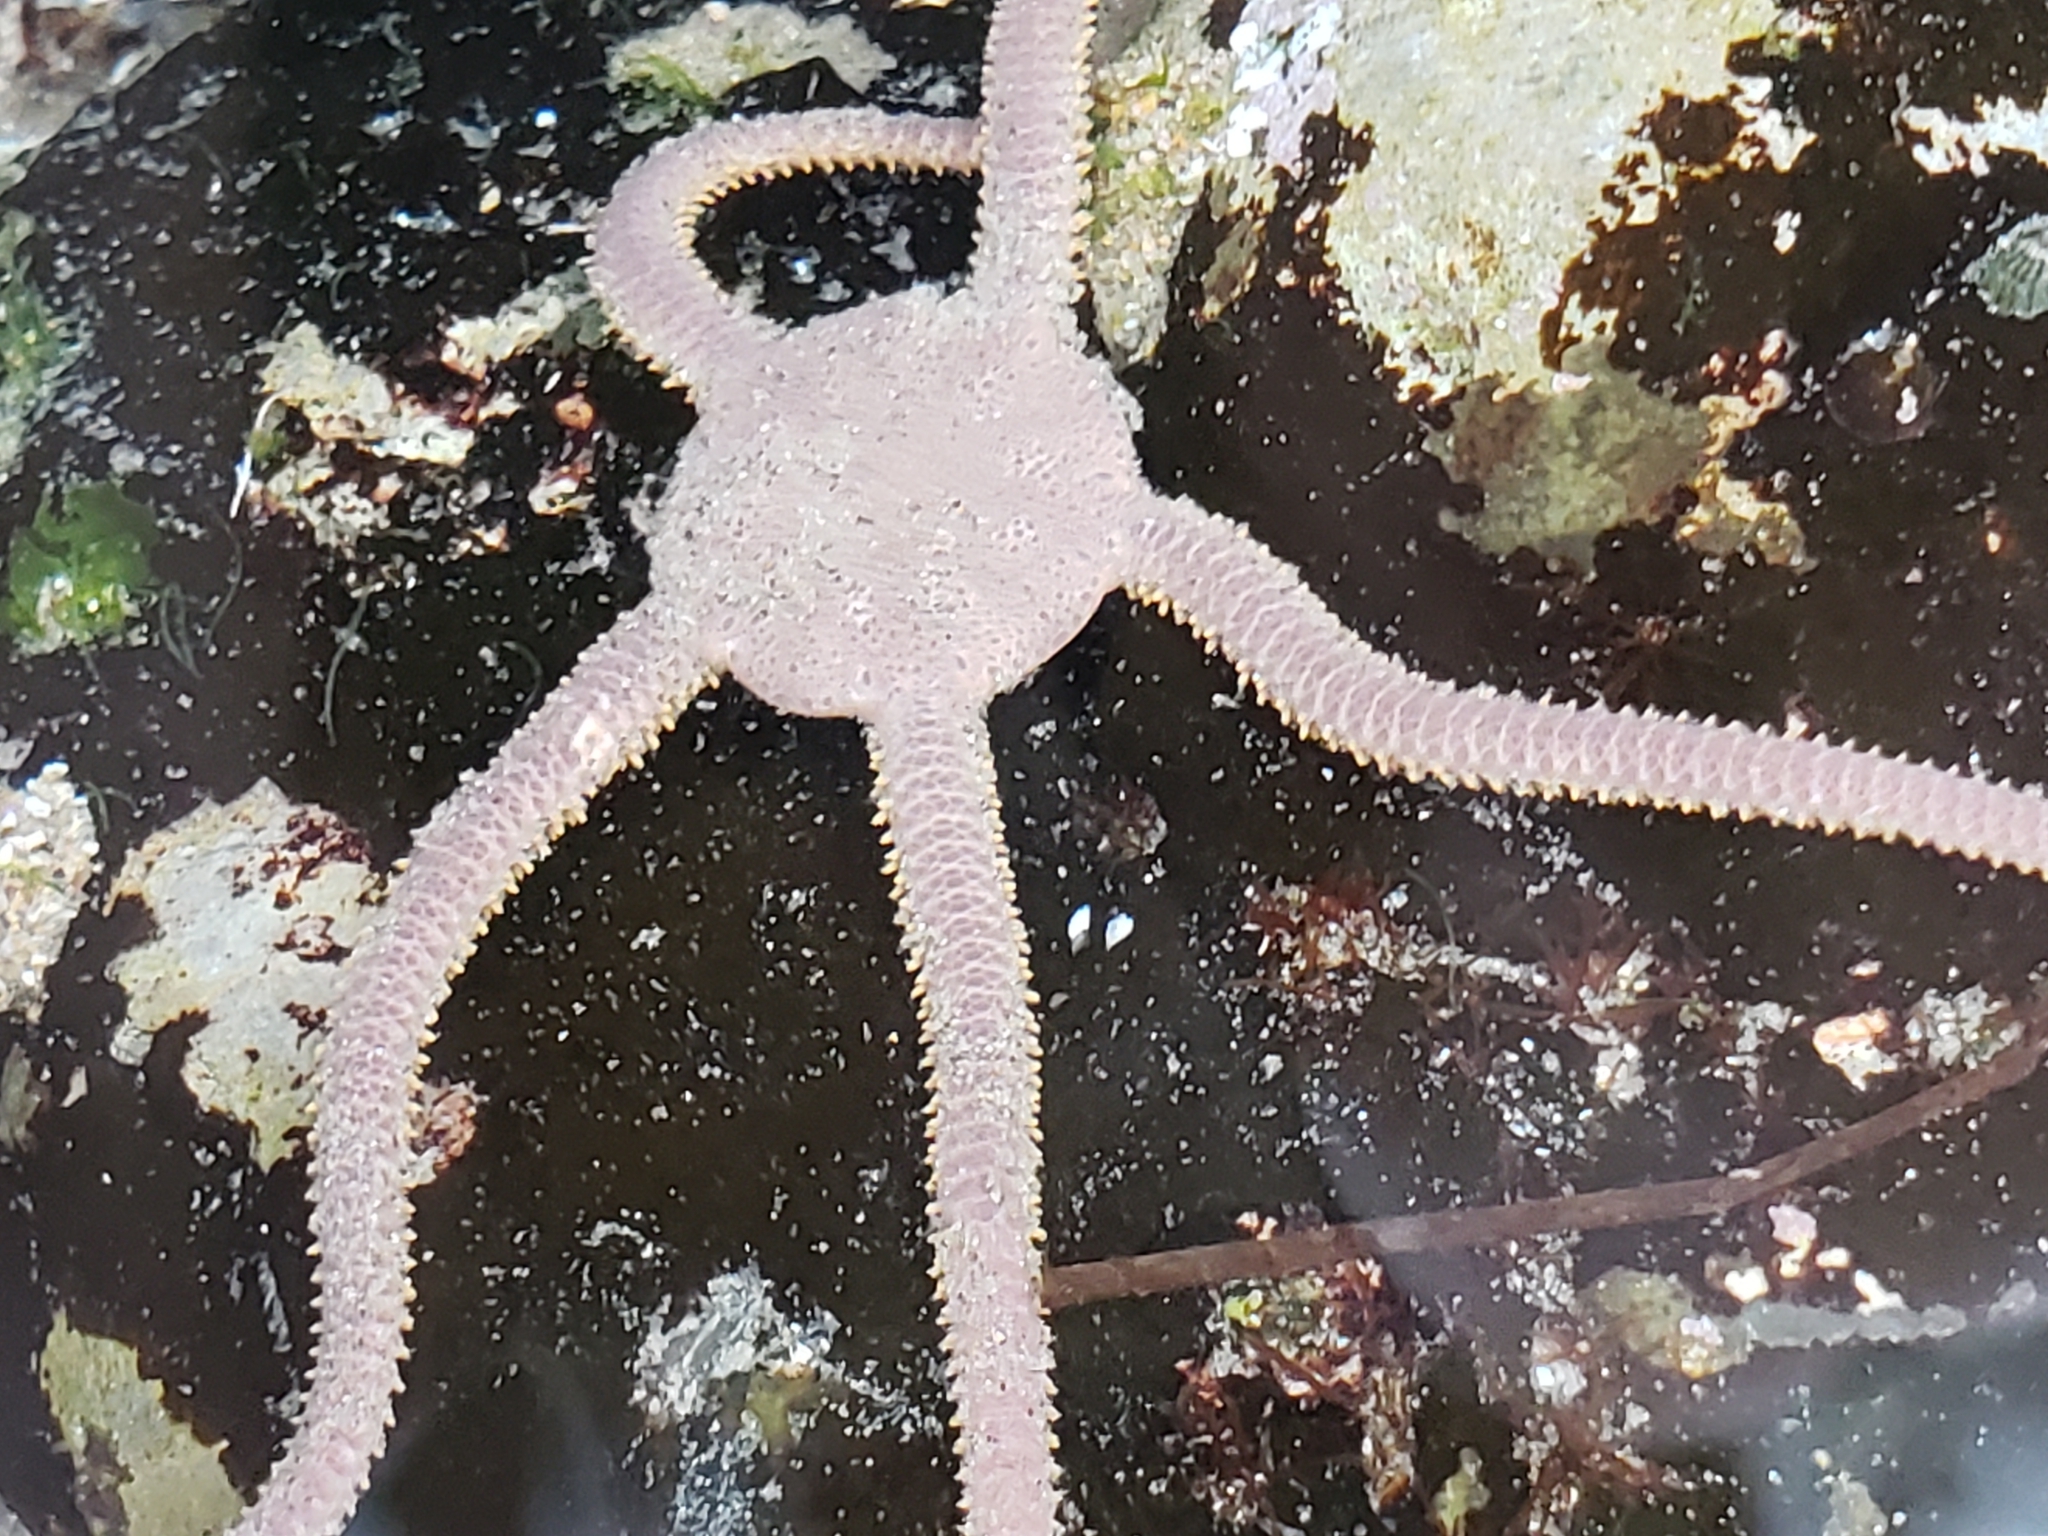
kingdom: Animalia
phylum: Echinodermata
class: Ophiuroidea
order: Amphilepidida
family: Hemieuryalidae
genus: Ophioplocus
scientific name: Ophioplocus esmarki
